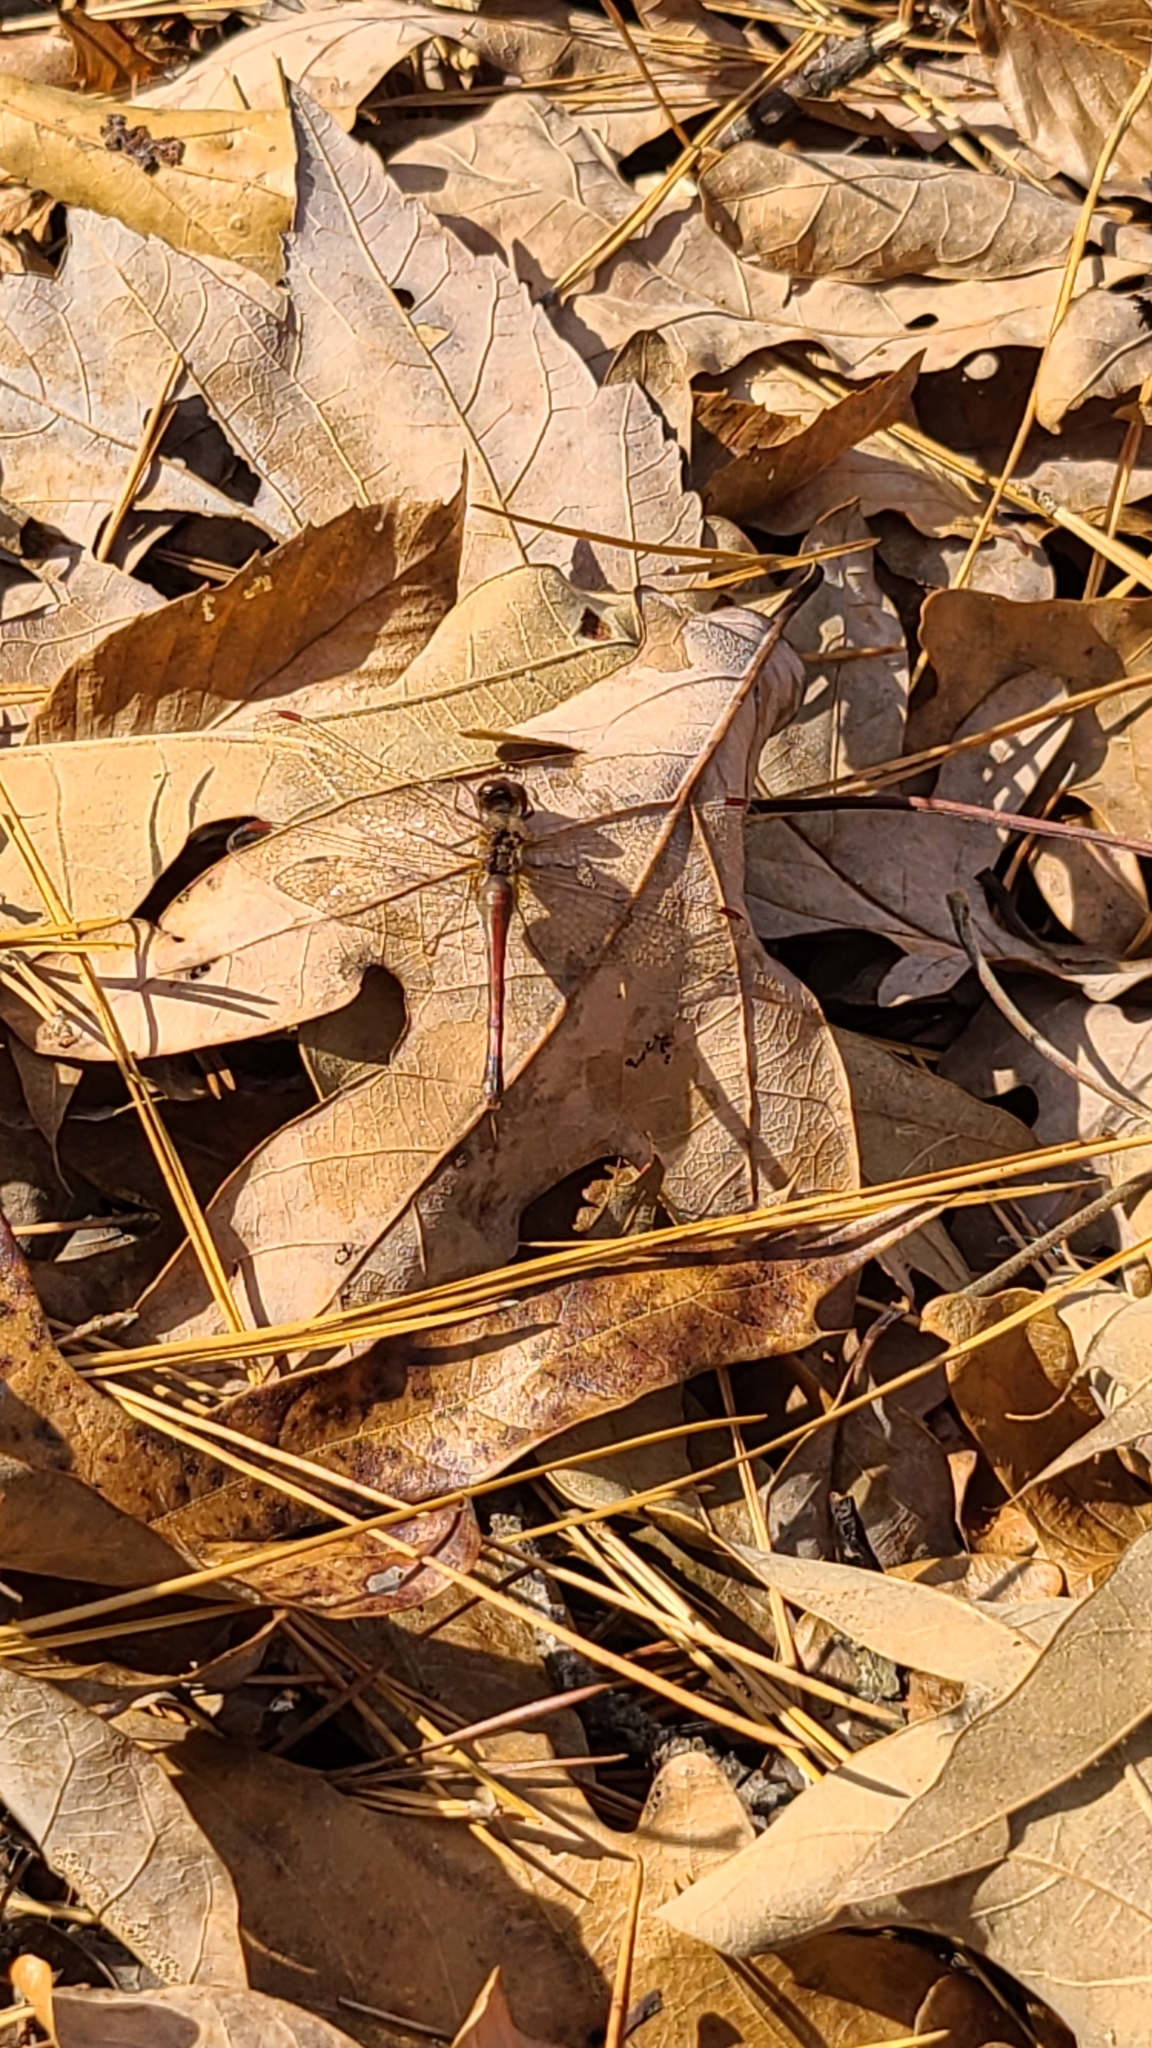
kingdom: Animalia
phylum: Arthropoda
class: Insecta
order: Odonata
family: Libellulidae
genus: Sympetrum
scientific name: Sympetrum vicinum
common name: Autumn meadowhawk
